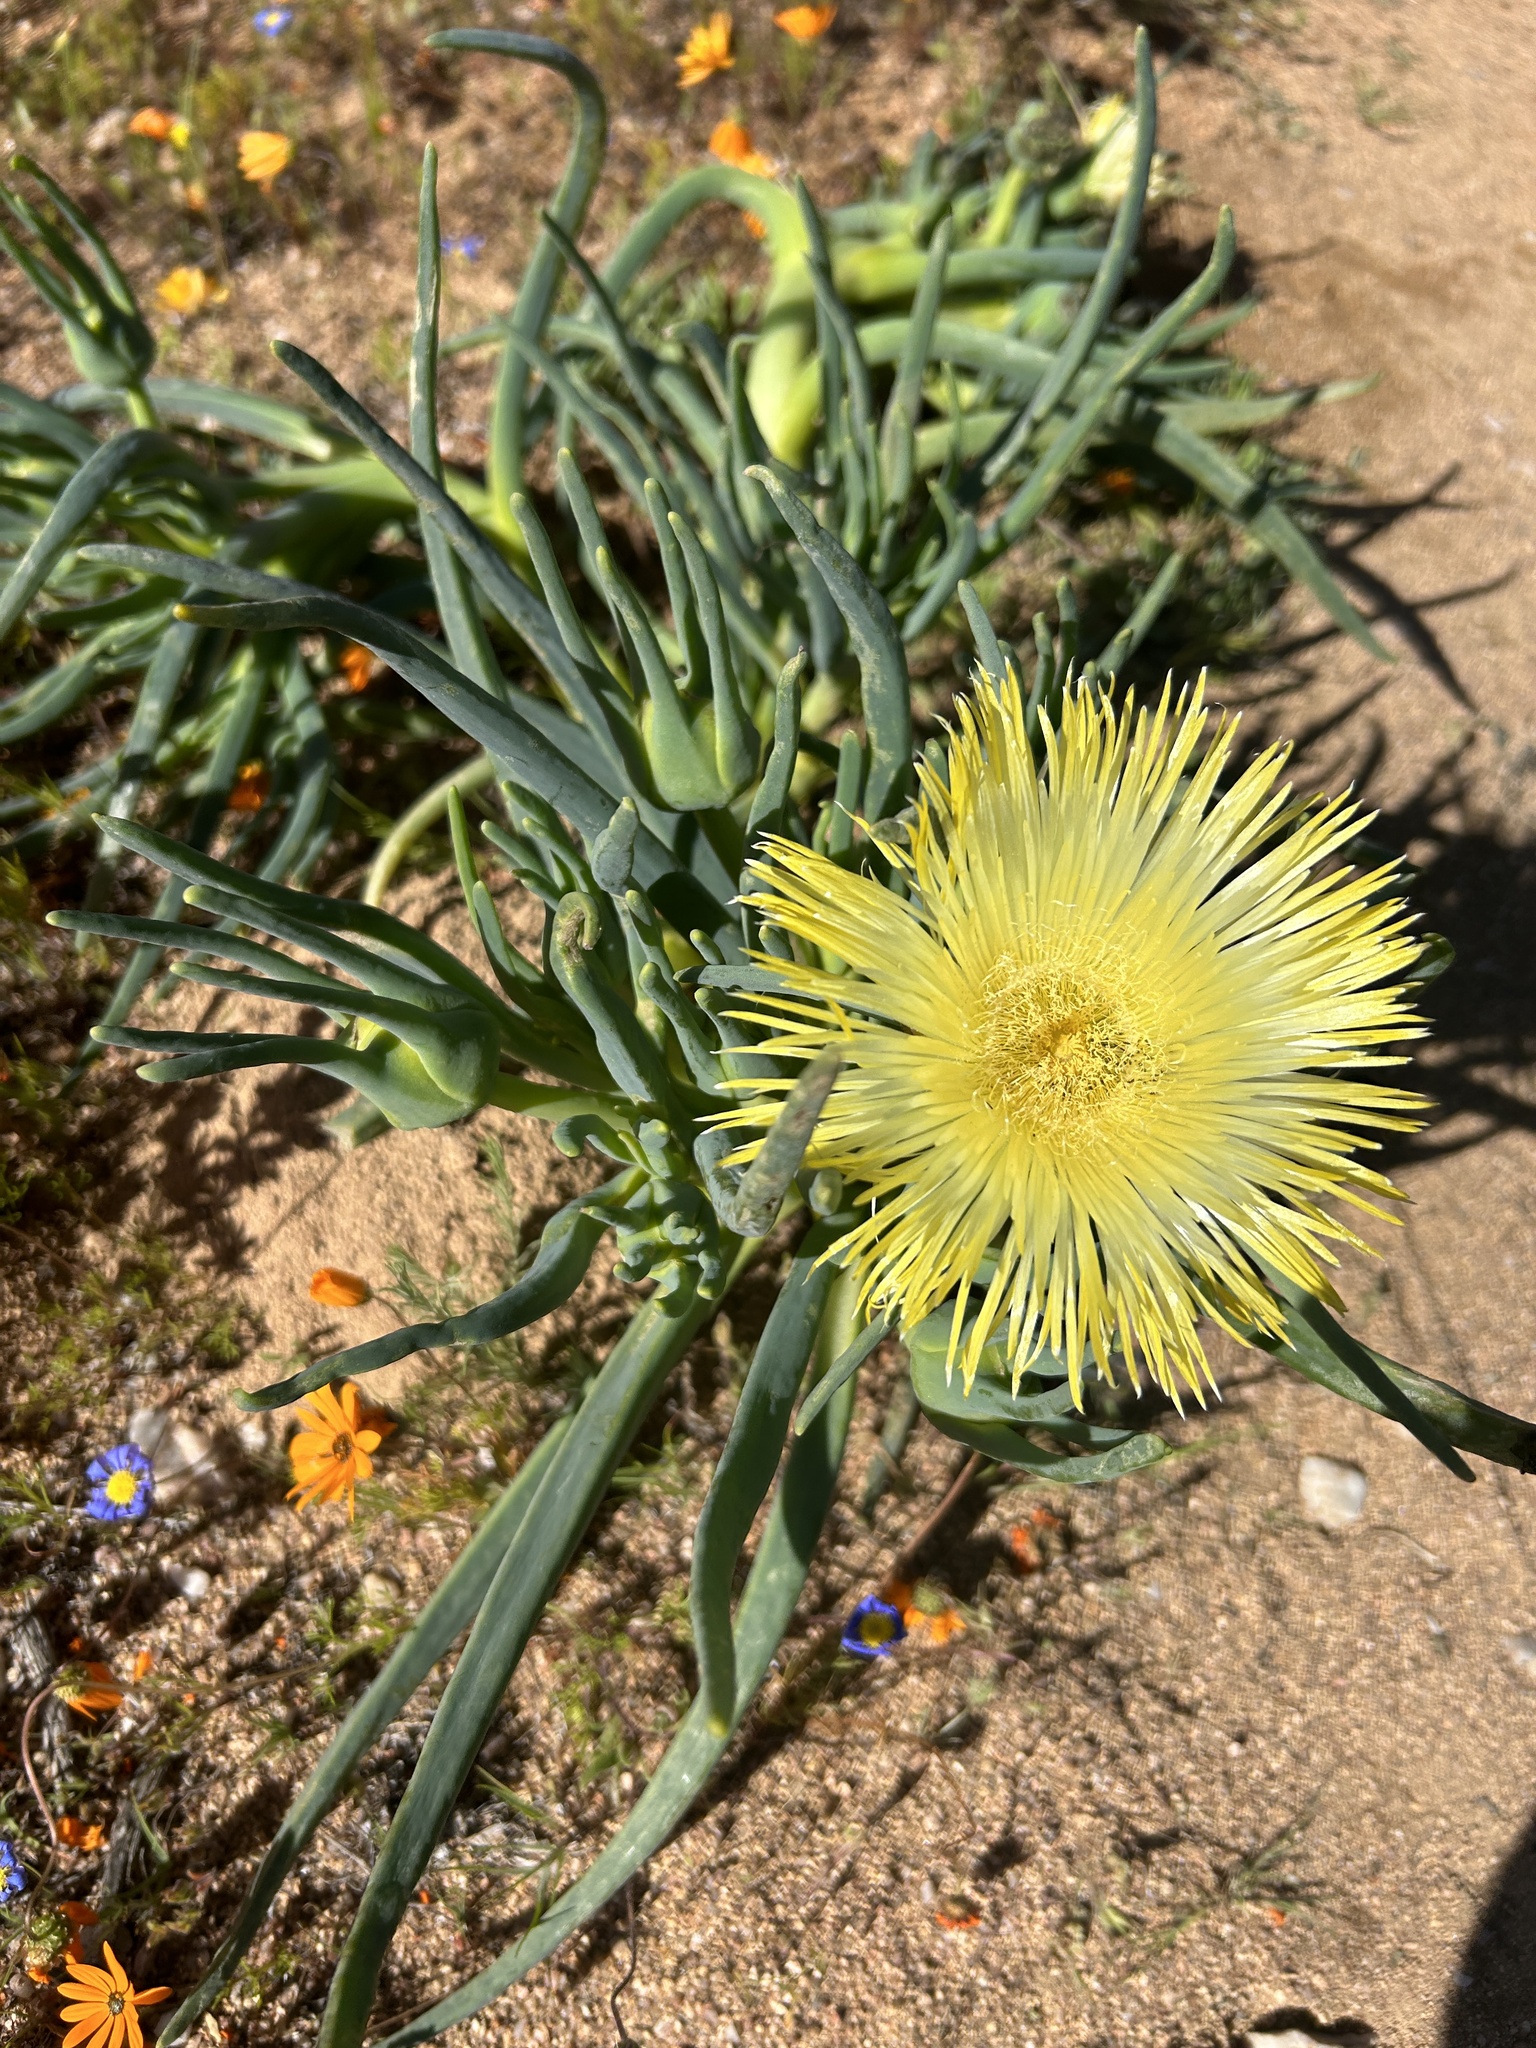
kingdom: Plantae
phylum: Tracheophyta
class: Magnoliopsida
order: Caryophyllales
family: Aizoaceae
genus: Conicosia
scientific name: Conicosia elongata
